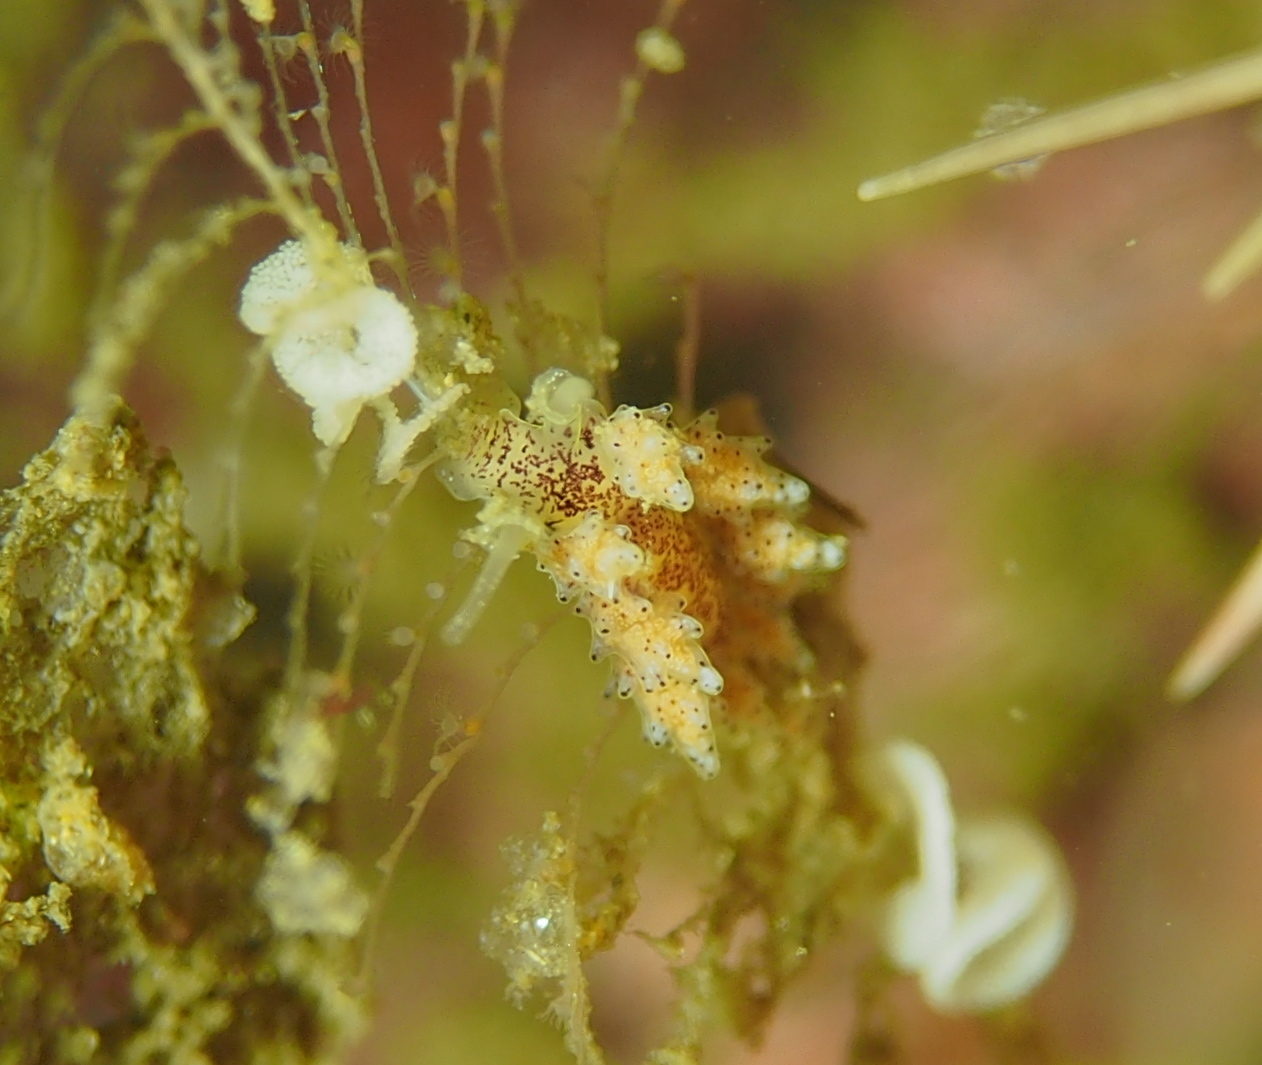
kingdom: Animalia
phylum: Mollusca
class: Gastropoda
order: Nudibranchia
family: Dotidae
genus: Doto
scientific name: Doto dunnei
